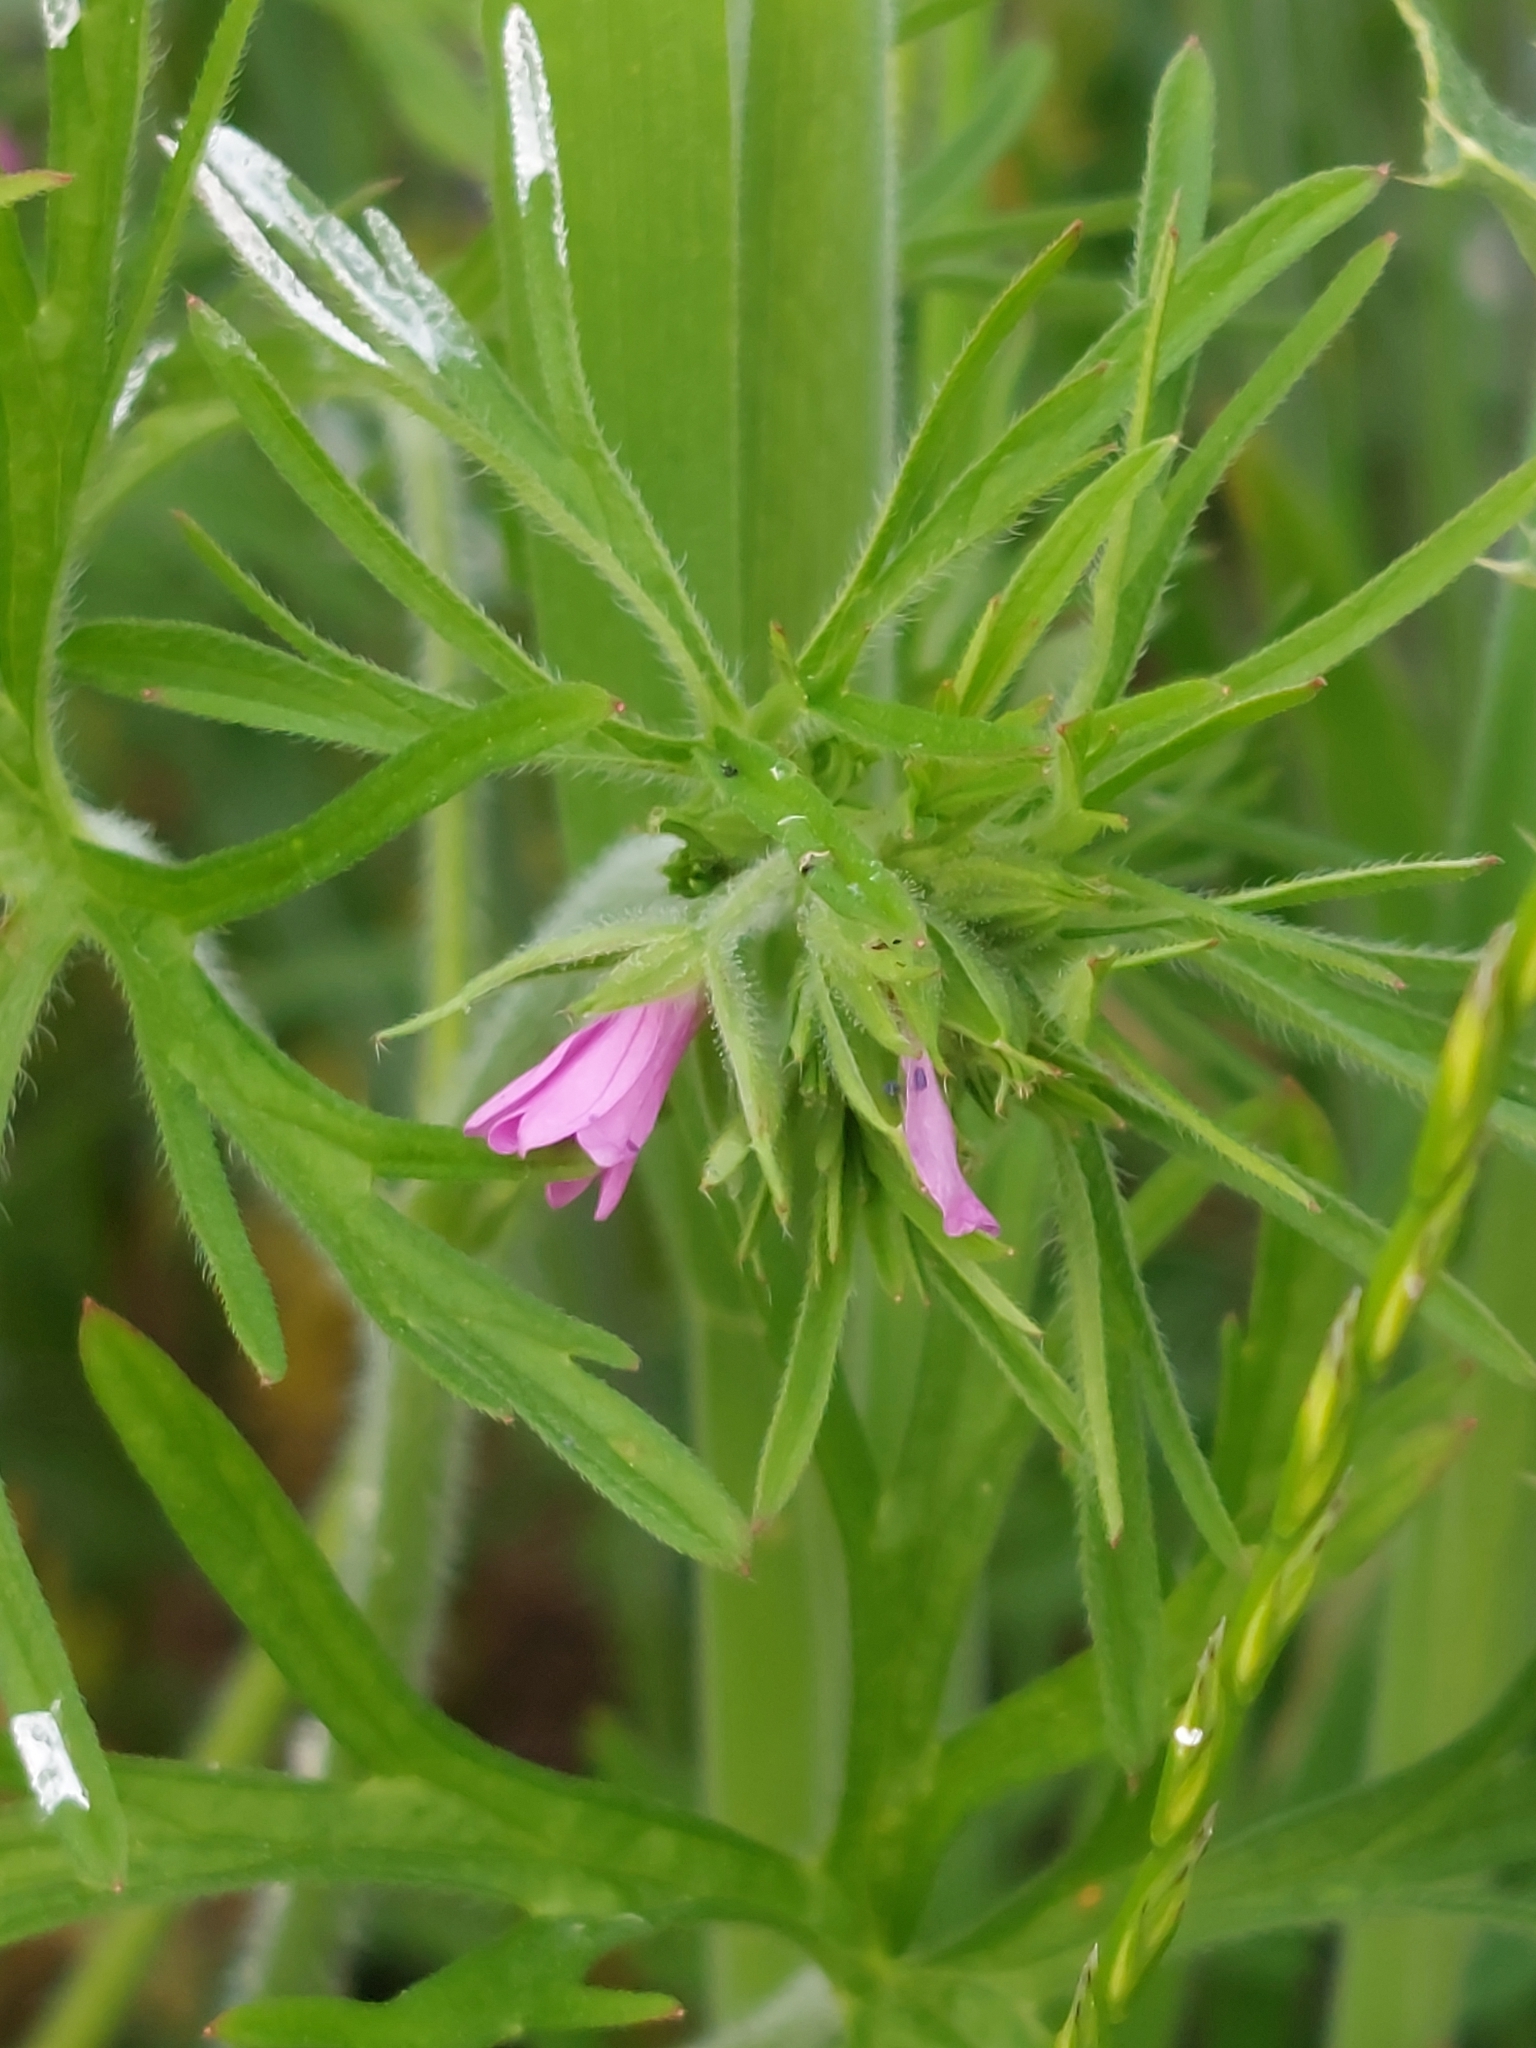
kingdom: Plantae
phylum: Tracheophyta
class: Magnoliopsida
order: Geraniales
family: Geraniaceae
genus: Geranium
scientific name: Geranium dissectum
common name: Cut-leaved crane's-bill
